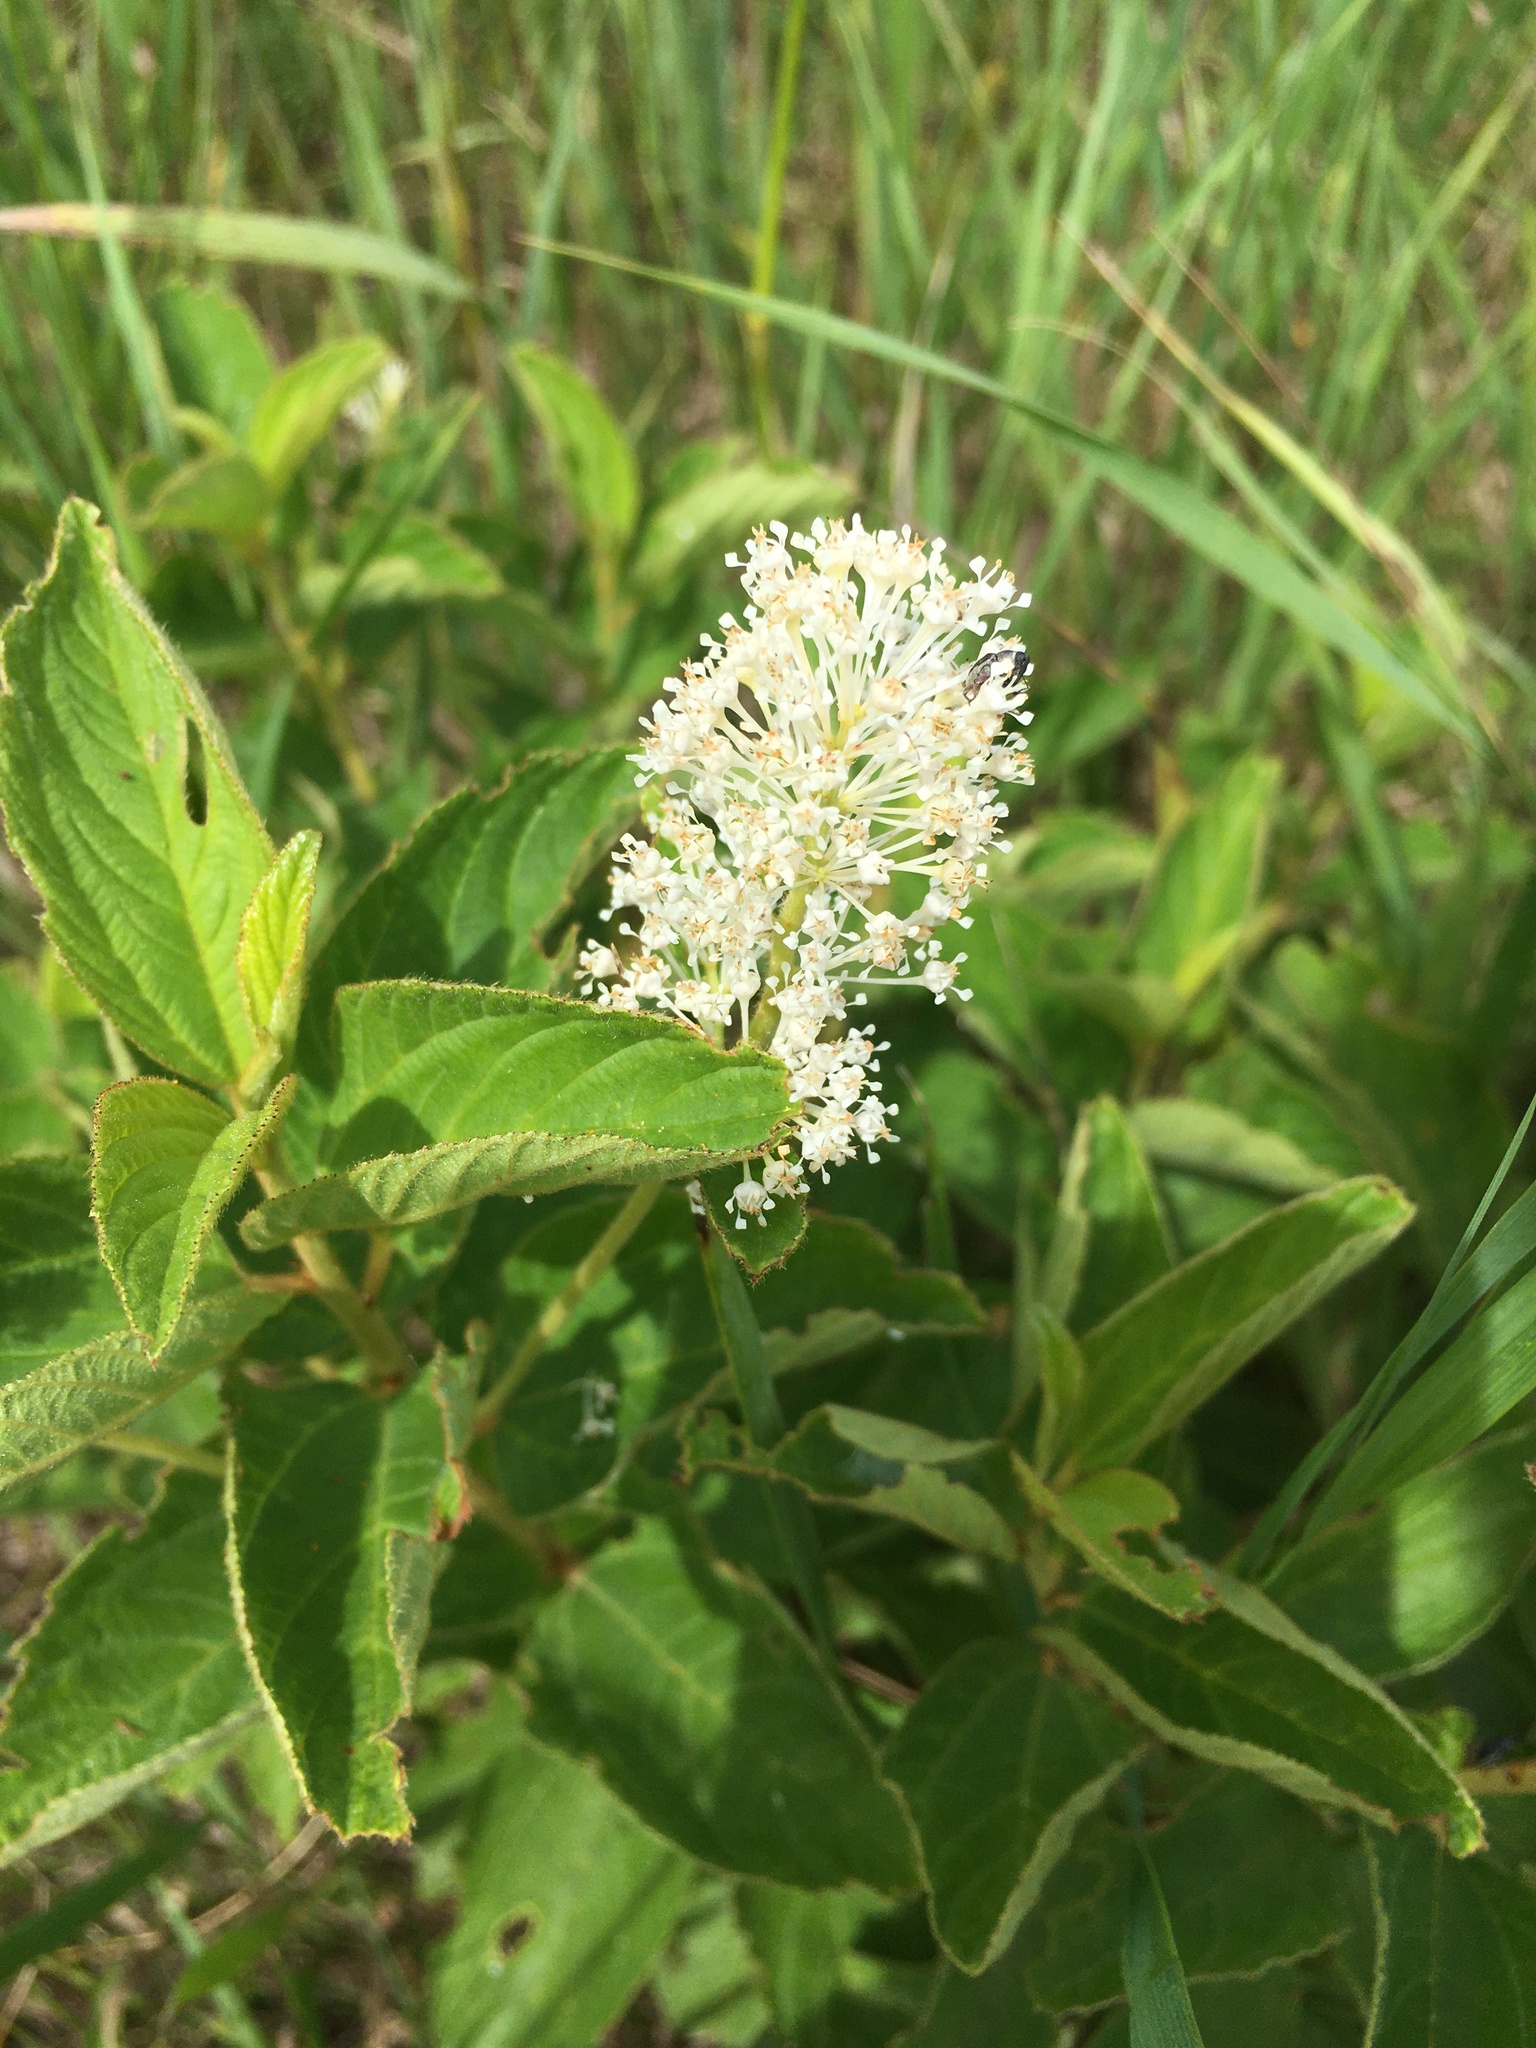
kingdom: Plantae
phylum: Tracheophyta
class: Magnoliopsida
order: Rosales
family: Rhamnaceae
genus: Ceanothus
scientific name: Ceanothus americanus
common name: Redroot
